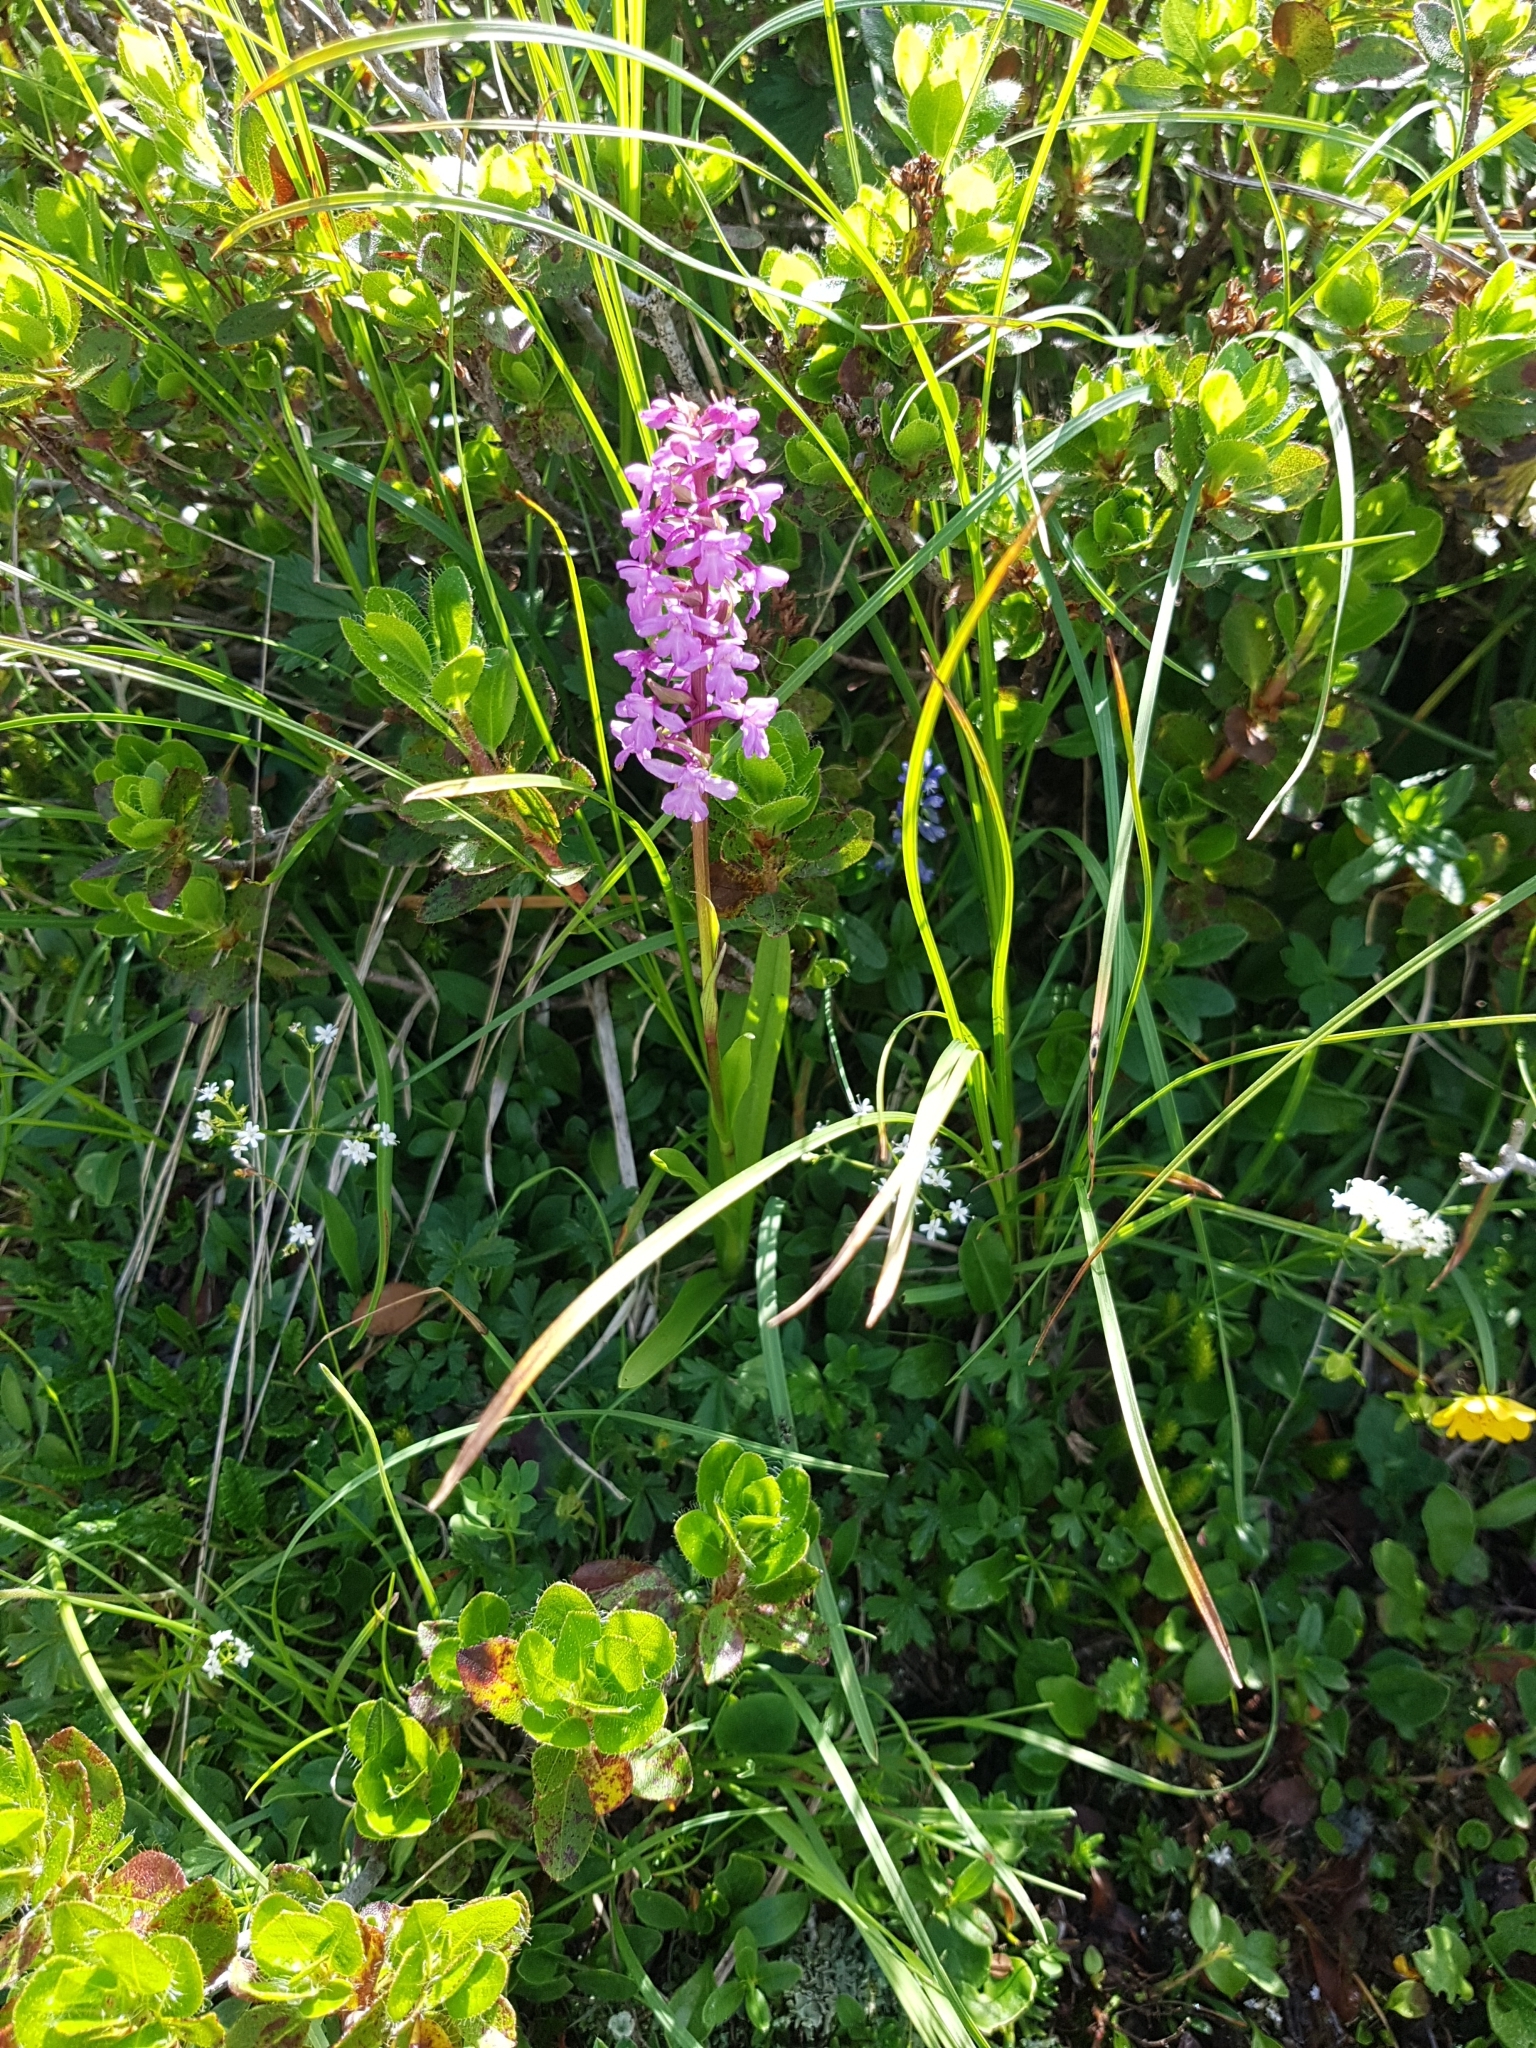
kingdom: Plantae
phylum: Tracheophyta
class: Liliopsida
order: Asparagales
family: Orchidaceae
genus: Gymnadenia
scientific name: Gymnadenia conopsea
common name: Fragrant orchid
